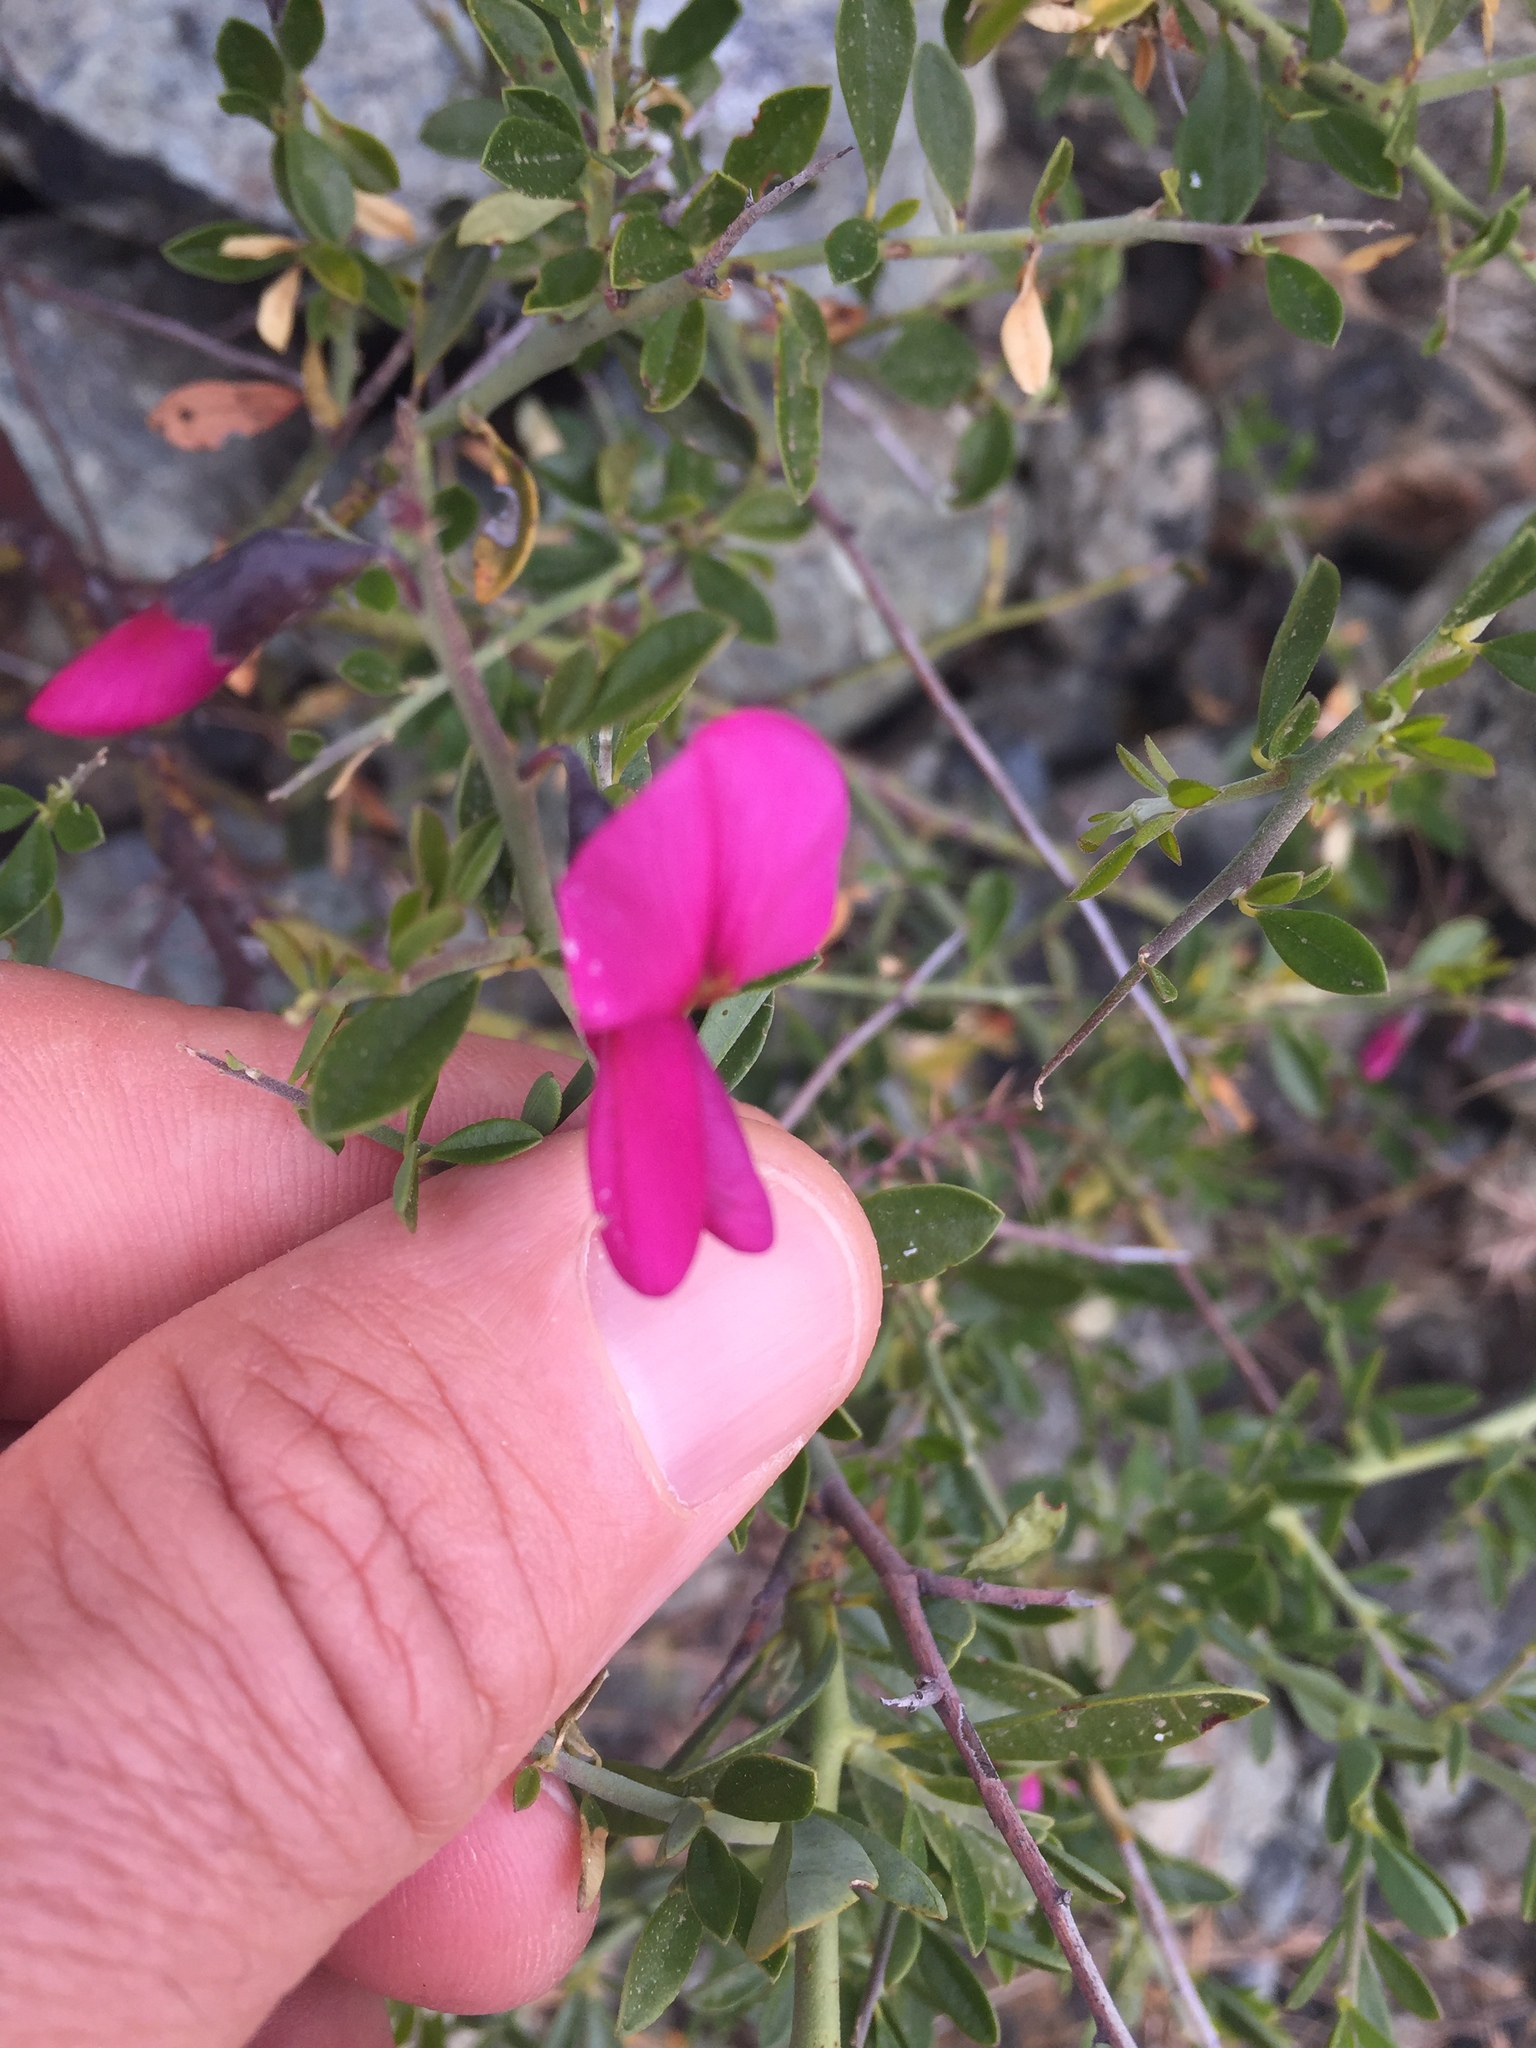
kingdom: Plantae
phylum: Tracheophyta
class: Magnoliopsida
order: Fabales
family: Fabaceae
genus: Pickeringia
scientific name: Pickeringia montana
